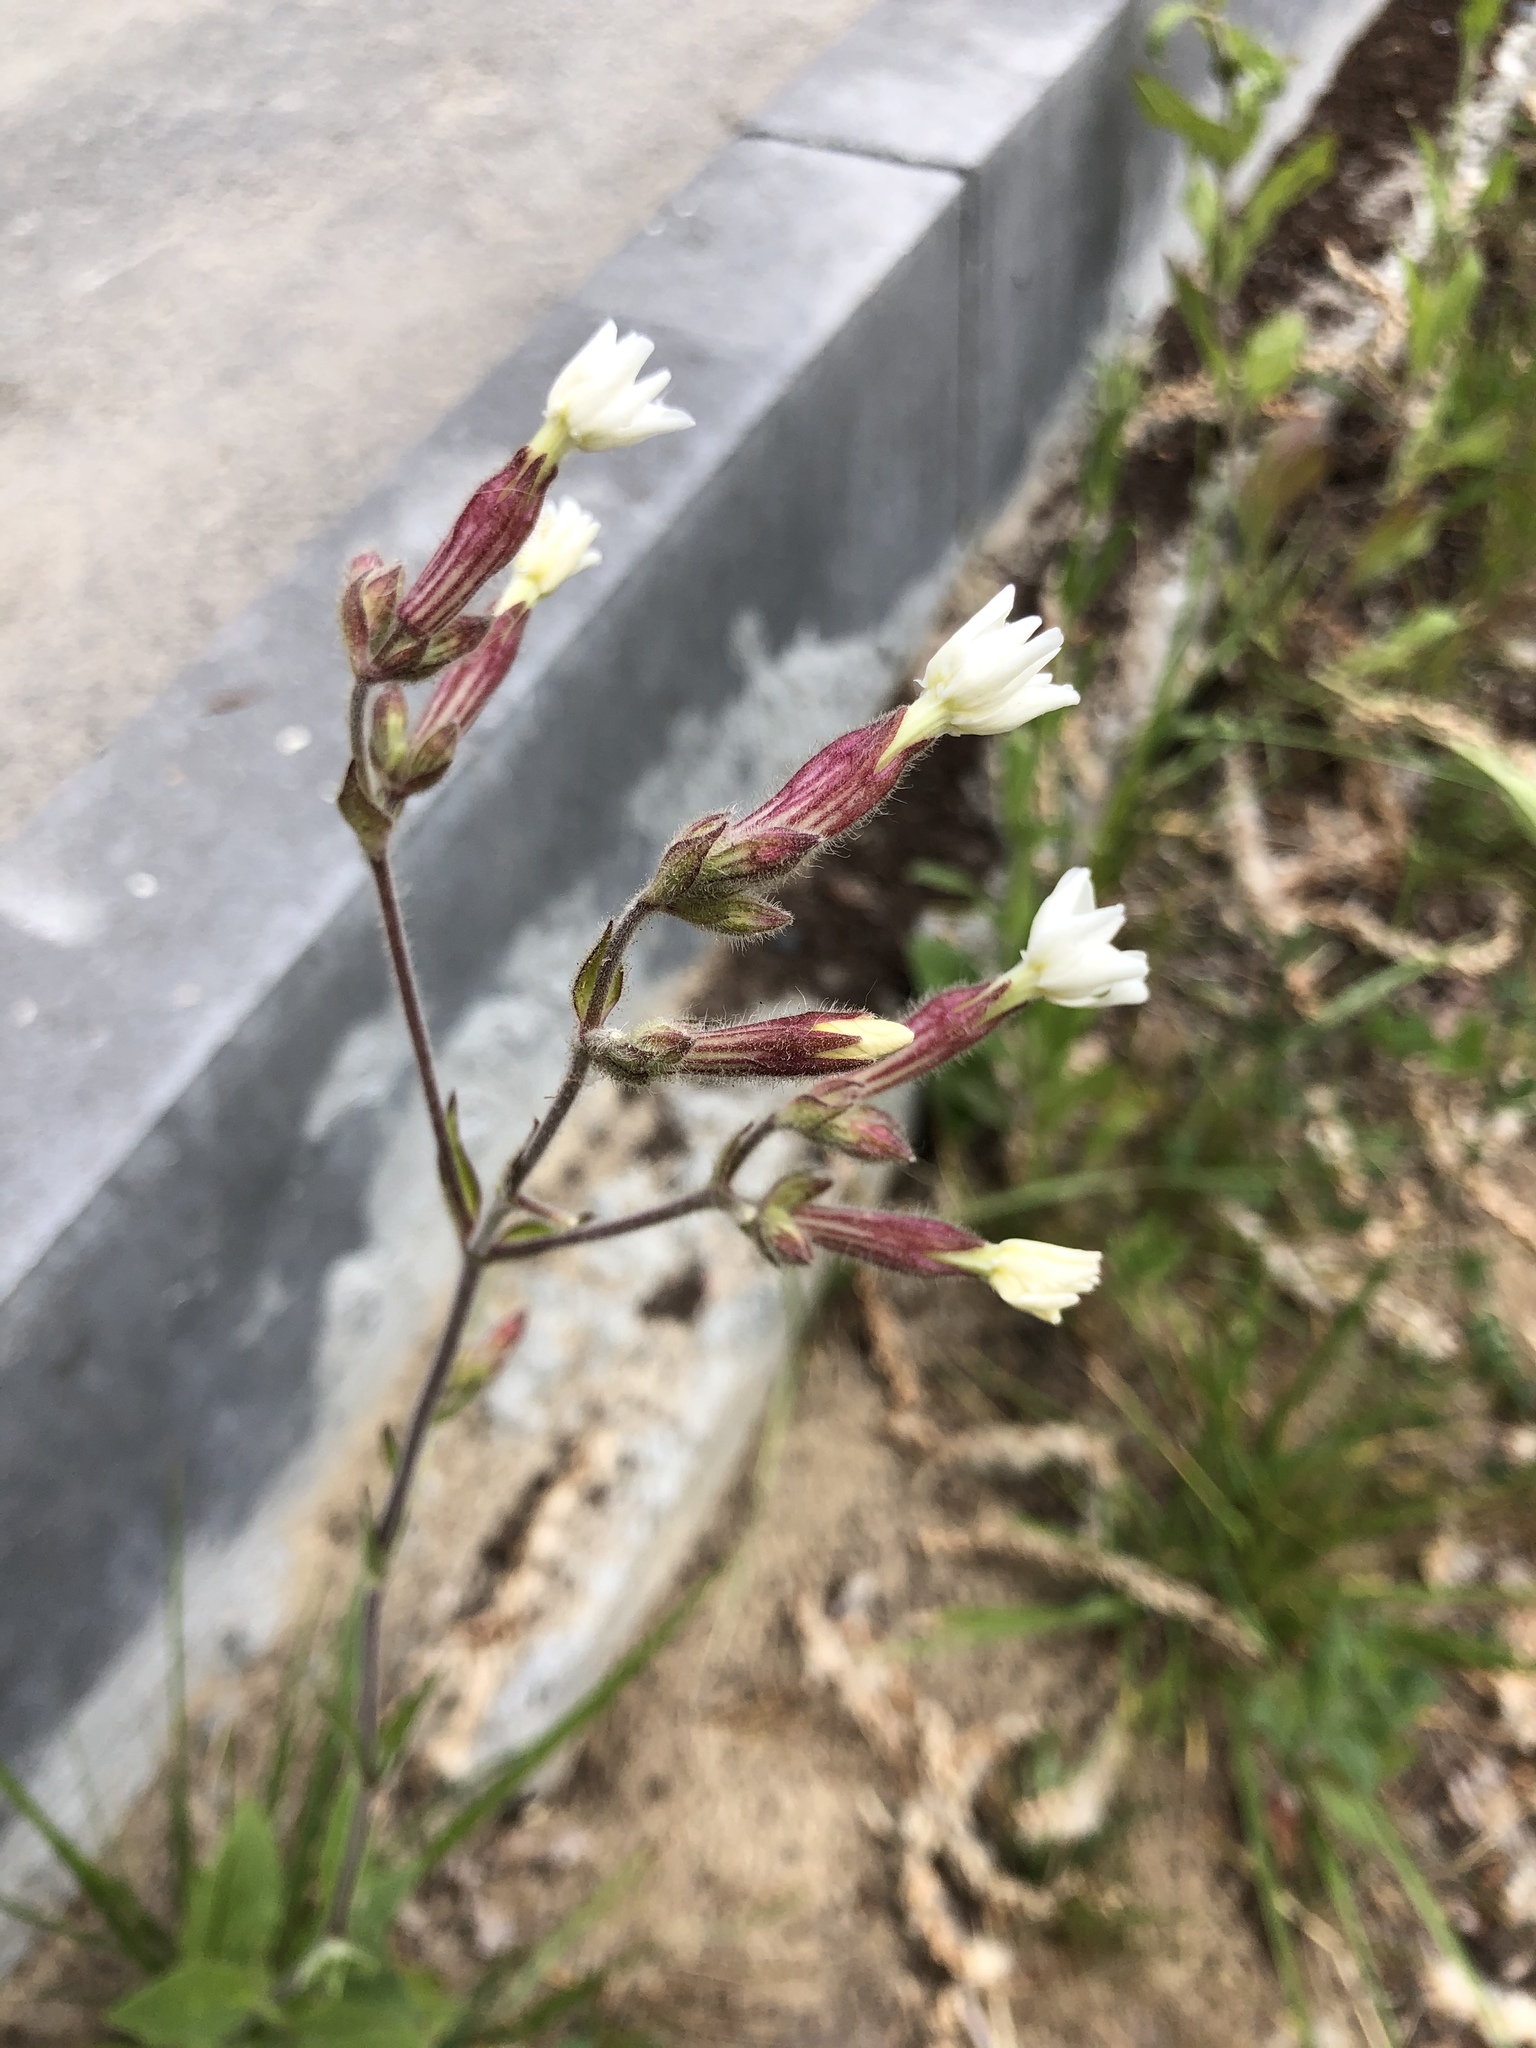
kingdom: Plantae
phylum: Tracheophyta
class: Magnoliopsida
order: Caryophyllales
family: Caryophyllaceae
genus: Silene
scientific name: Silene latifolia
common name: White campion
